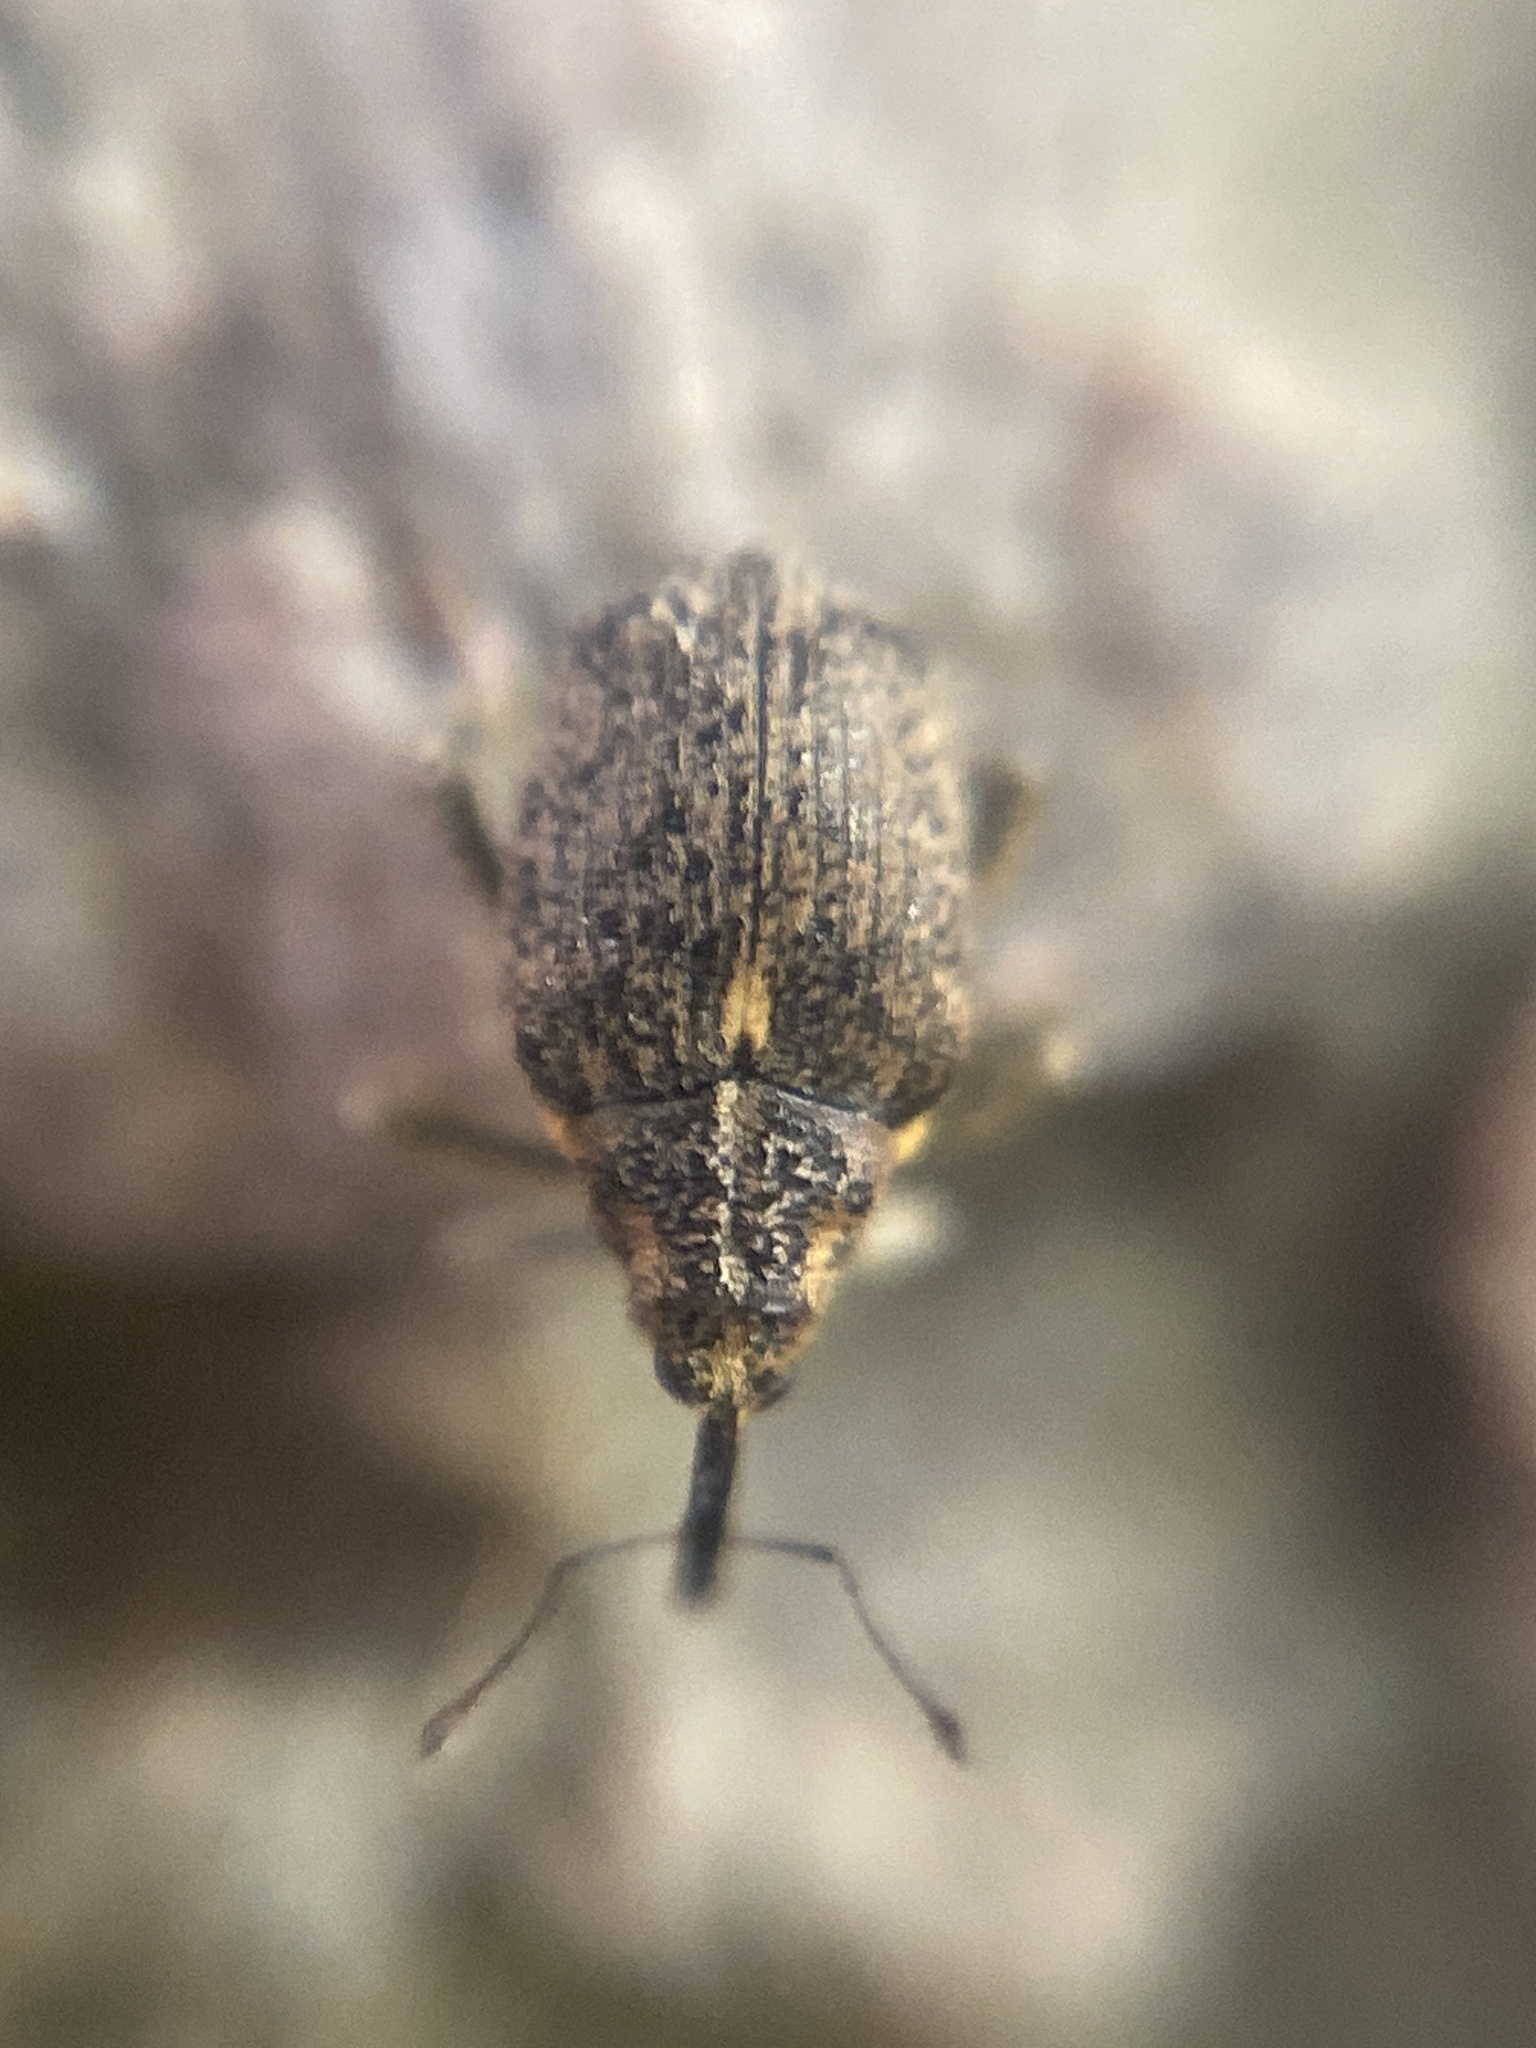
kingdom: Animalia
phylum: Arthropoda
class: Insecta
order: Coleoptera
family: Curculionidae
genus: Ceutorhynchus
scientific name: Ceutorhynchus pallidactylus
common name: Cabbage stem weavil
